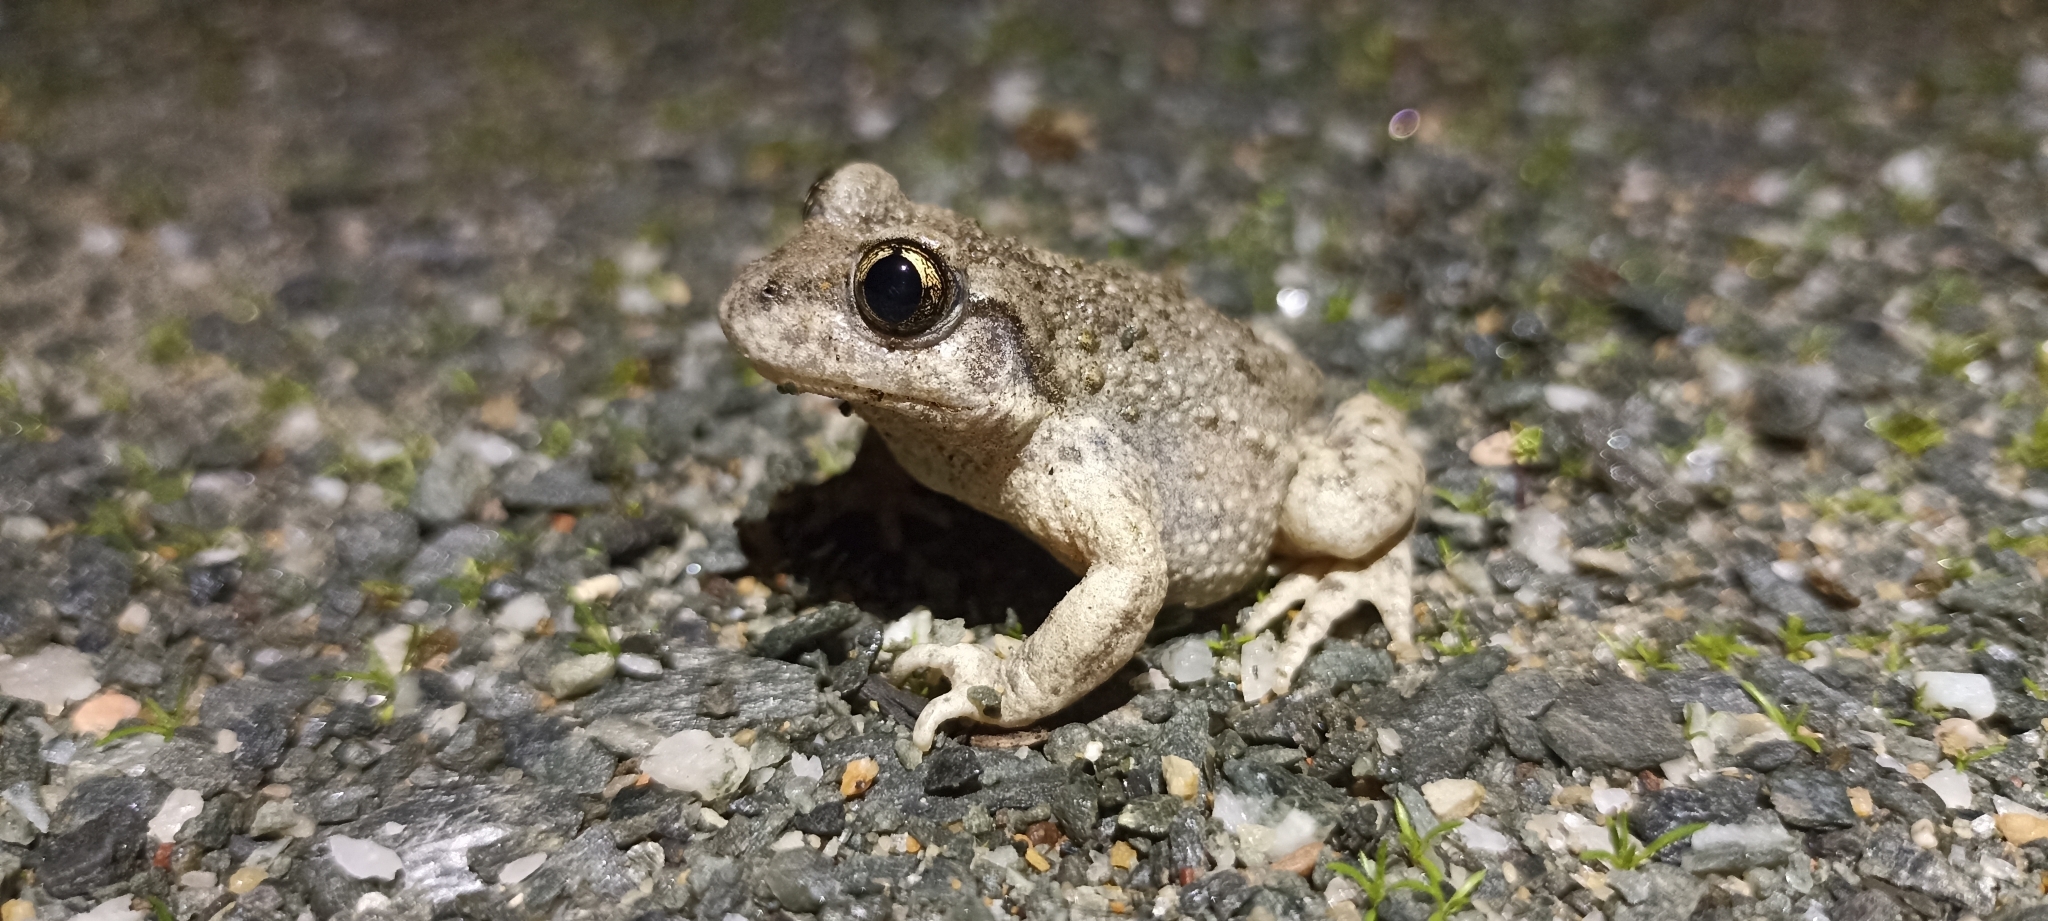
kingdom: Animalia
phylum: Chordata
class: Amphibia
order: Anura
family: Alytidae
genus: Alytes
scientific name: Alytes obstetricans
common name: Midwife toad
